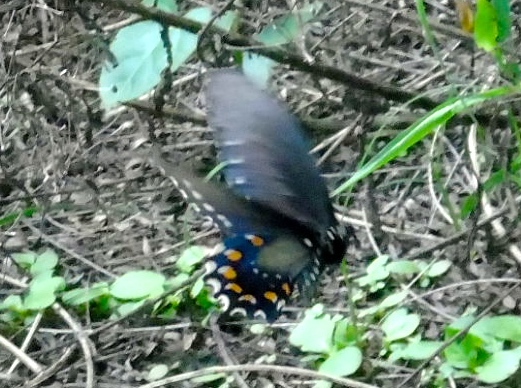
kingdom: Animalia
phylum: Arthropoda
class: Insecta
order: Lepidoptera
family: Papilionidae
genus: Battus
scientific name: Battus philenor
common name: Pipevine swallowtail
